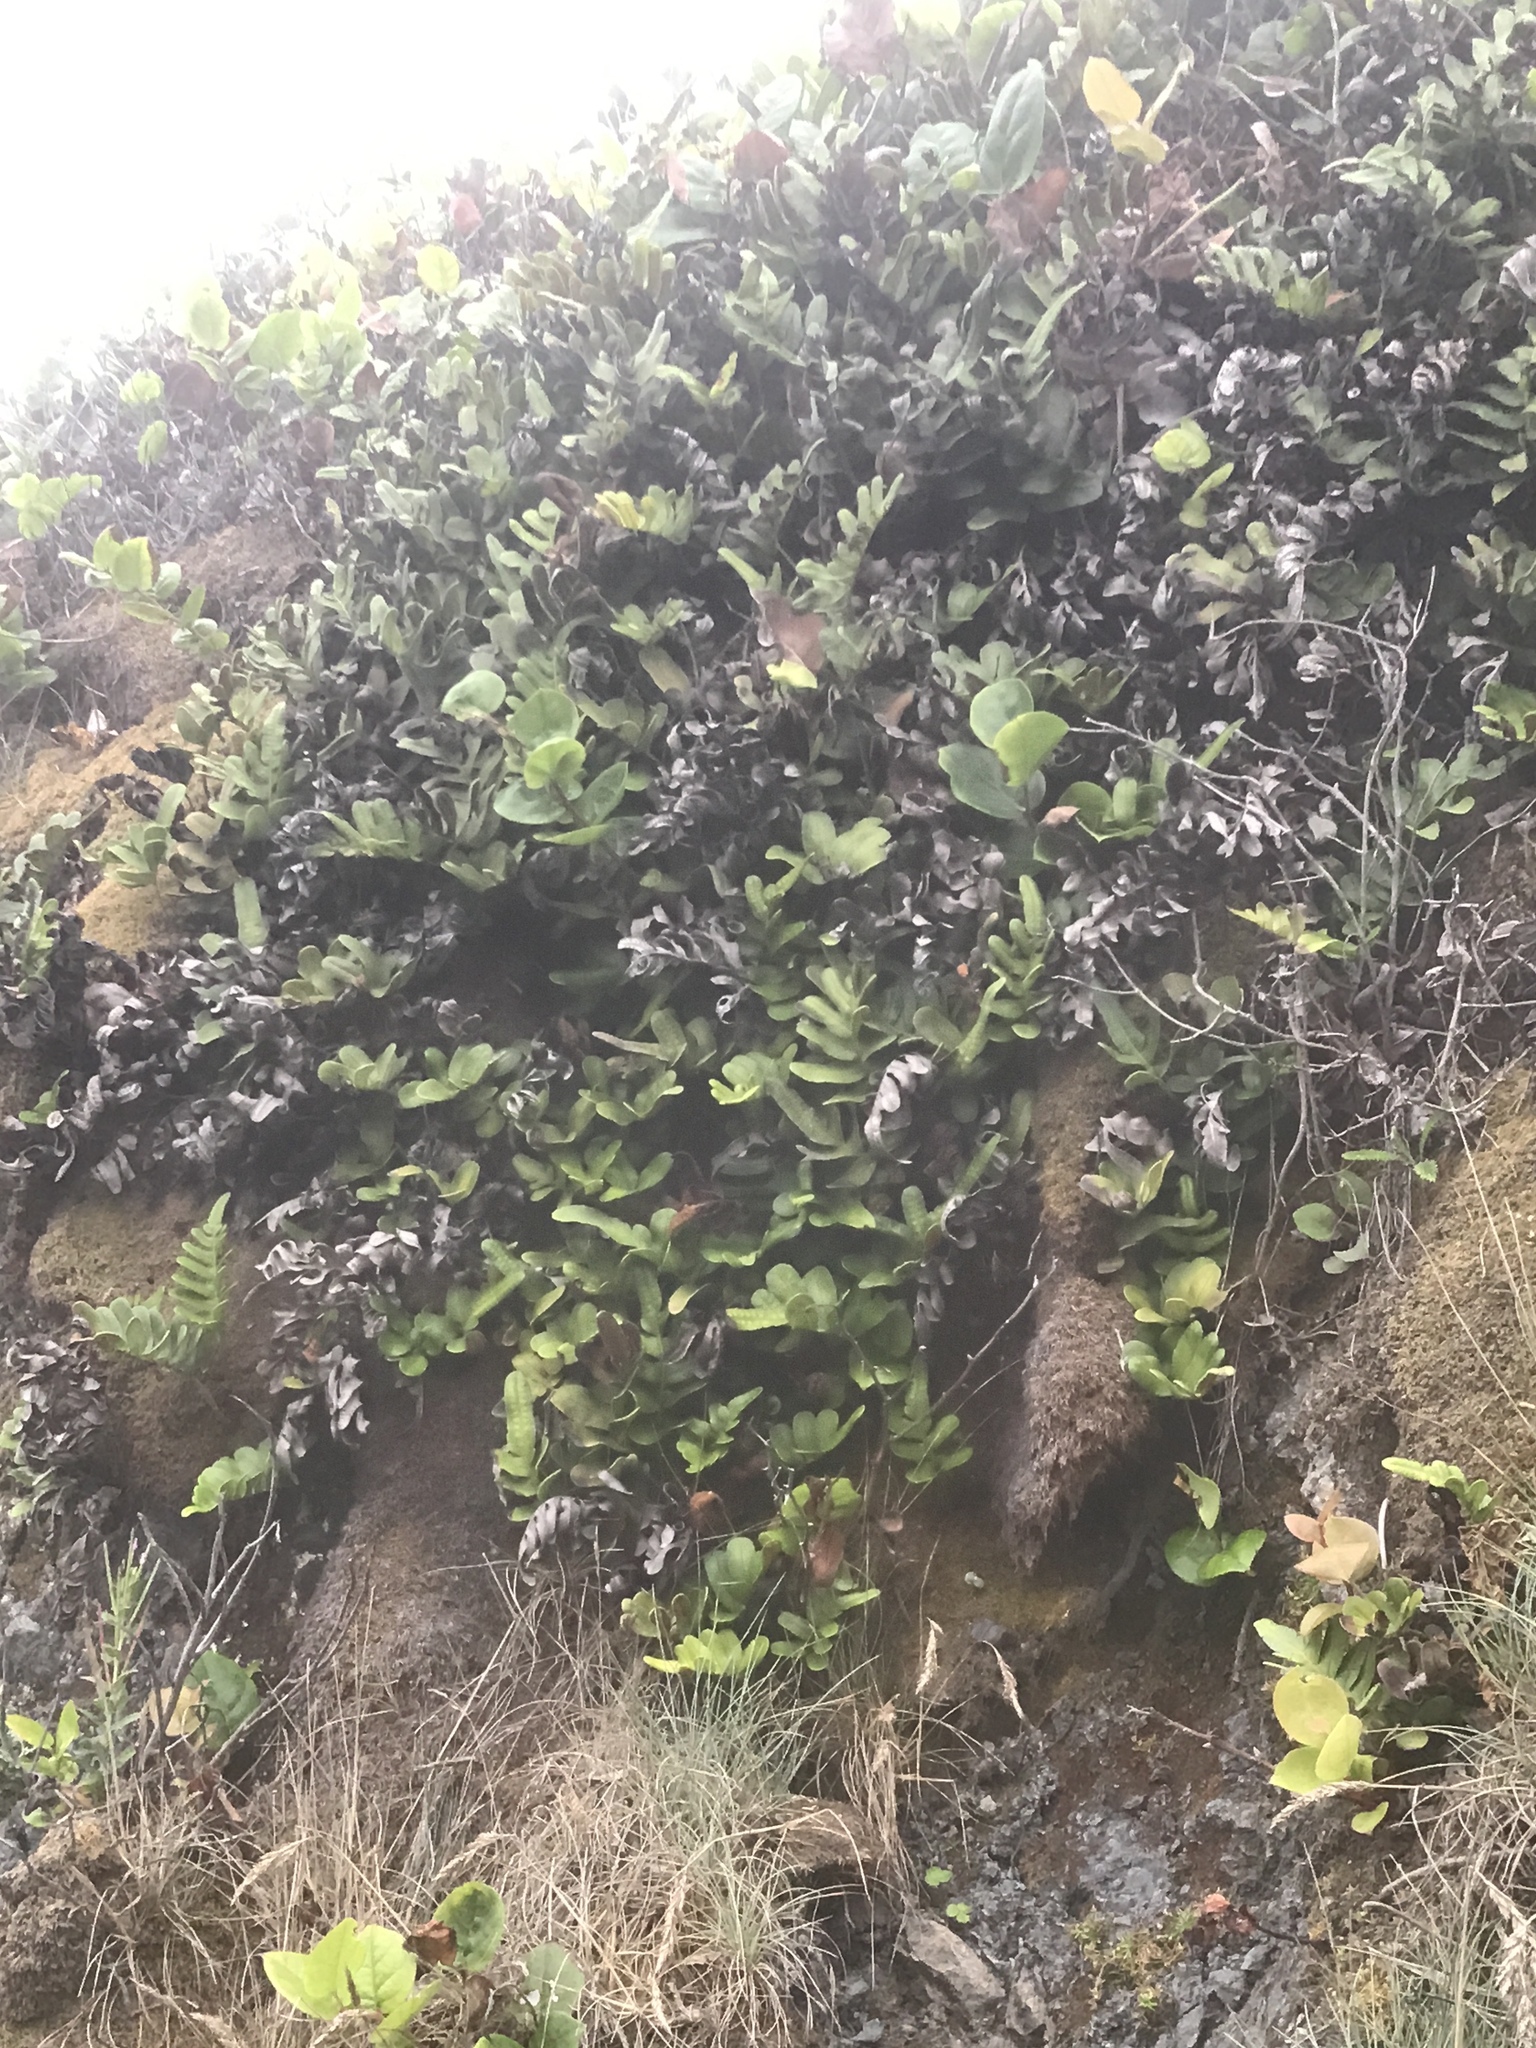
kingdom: Plantae
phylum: Tracheophyta
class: Polypodiopsida
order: Polypodiales
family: Polypodiaceae
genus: Polypodium
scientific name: Polypodium scouleri
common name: Scouler's polypody
